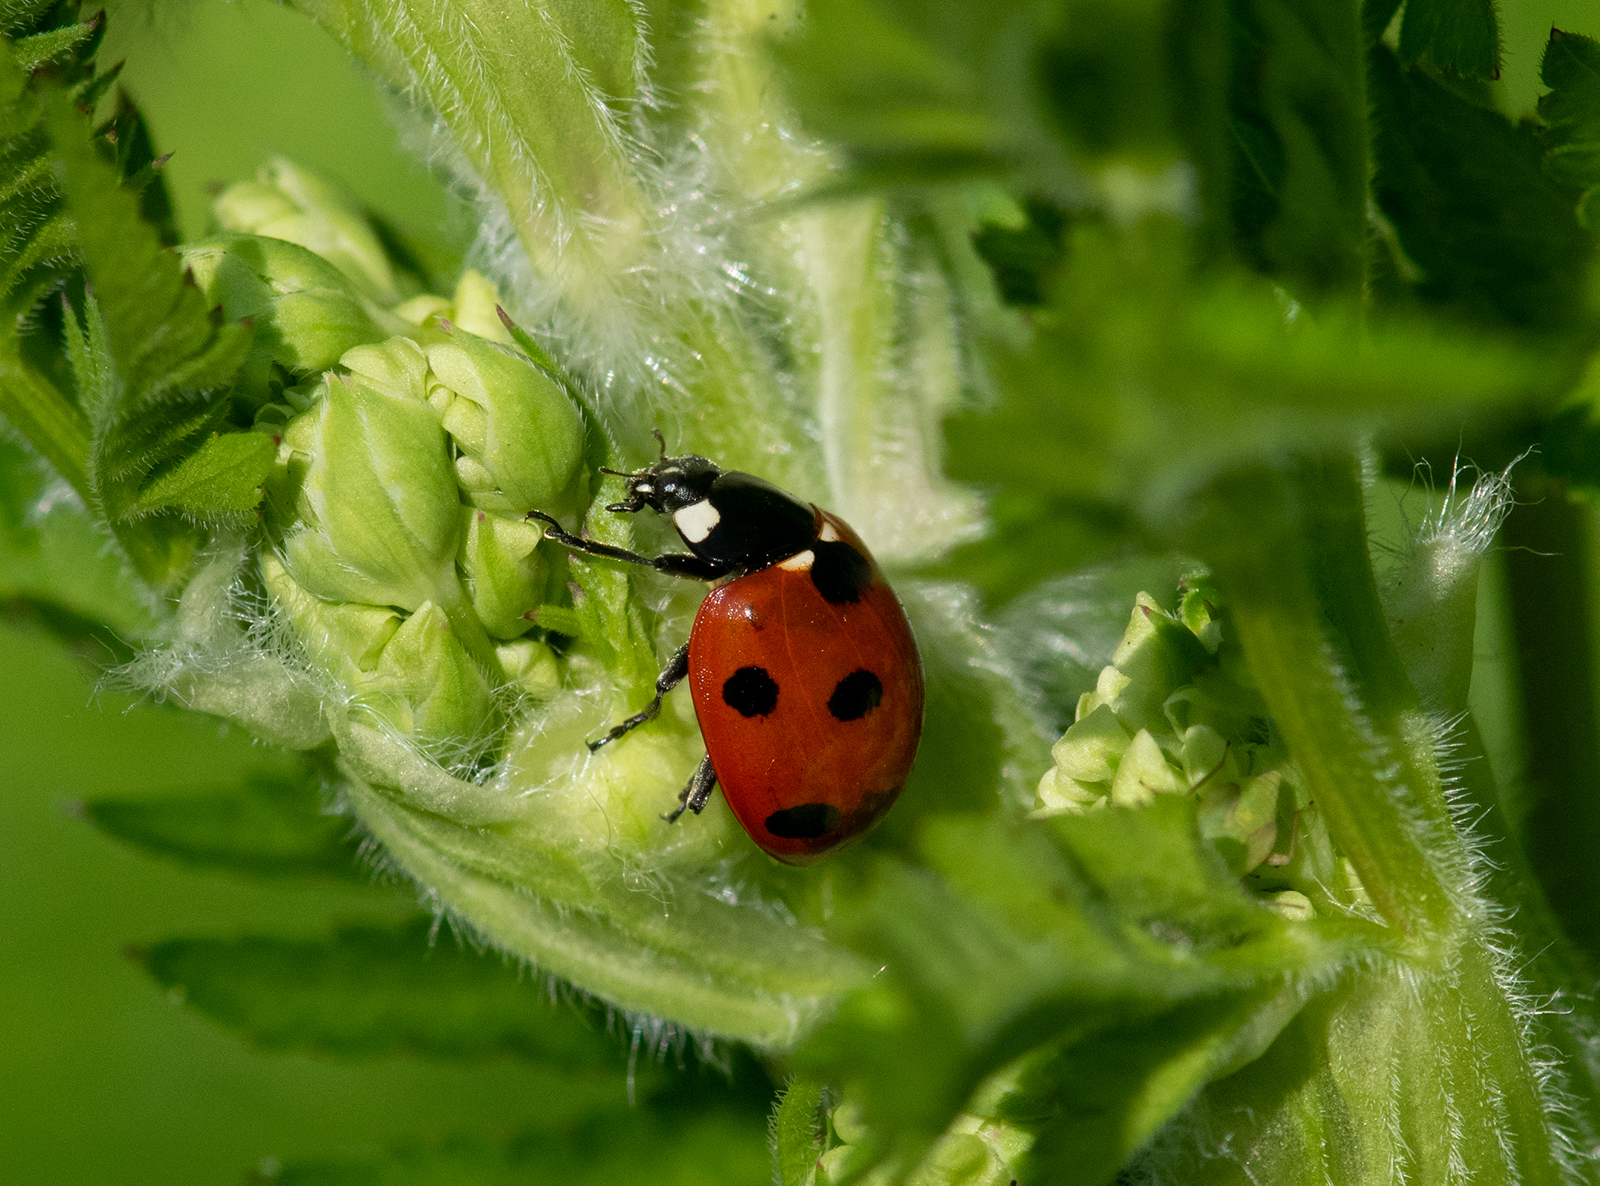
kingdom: Animalia
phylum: Arthropoda
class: Insecta
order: Coleoptera
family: Coccinellidae
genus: Coccinella
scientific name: Coccinella septempunctata
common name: Sevenspotted lady beetle
